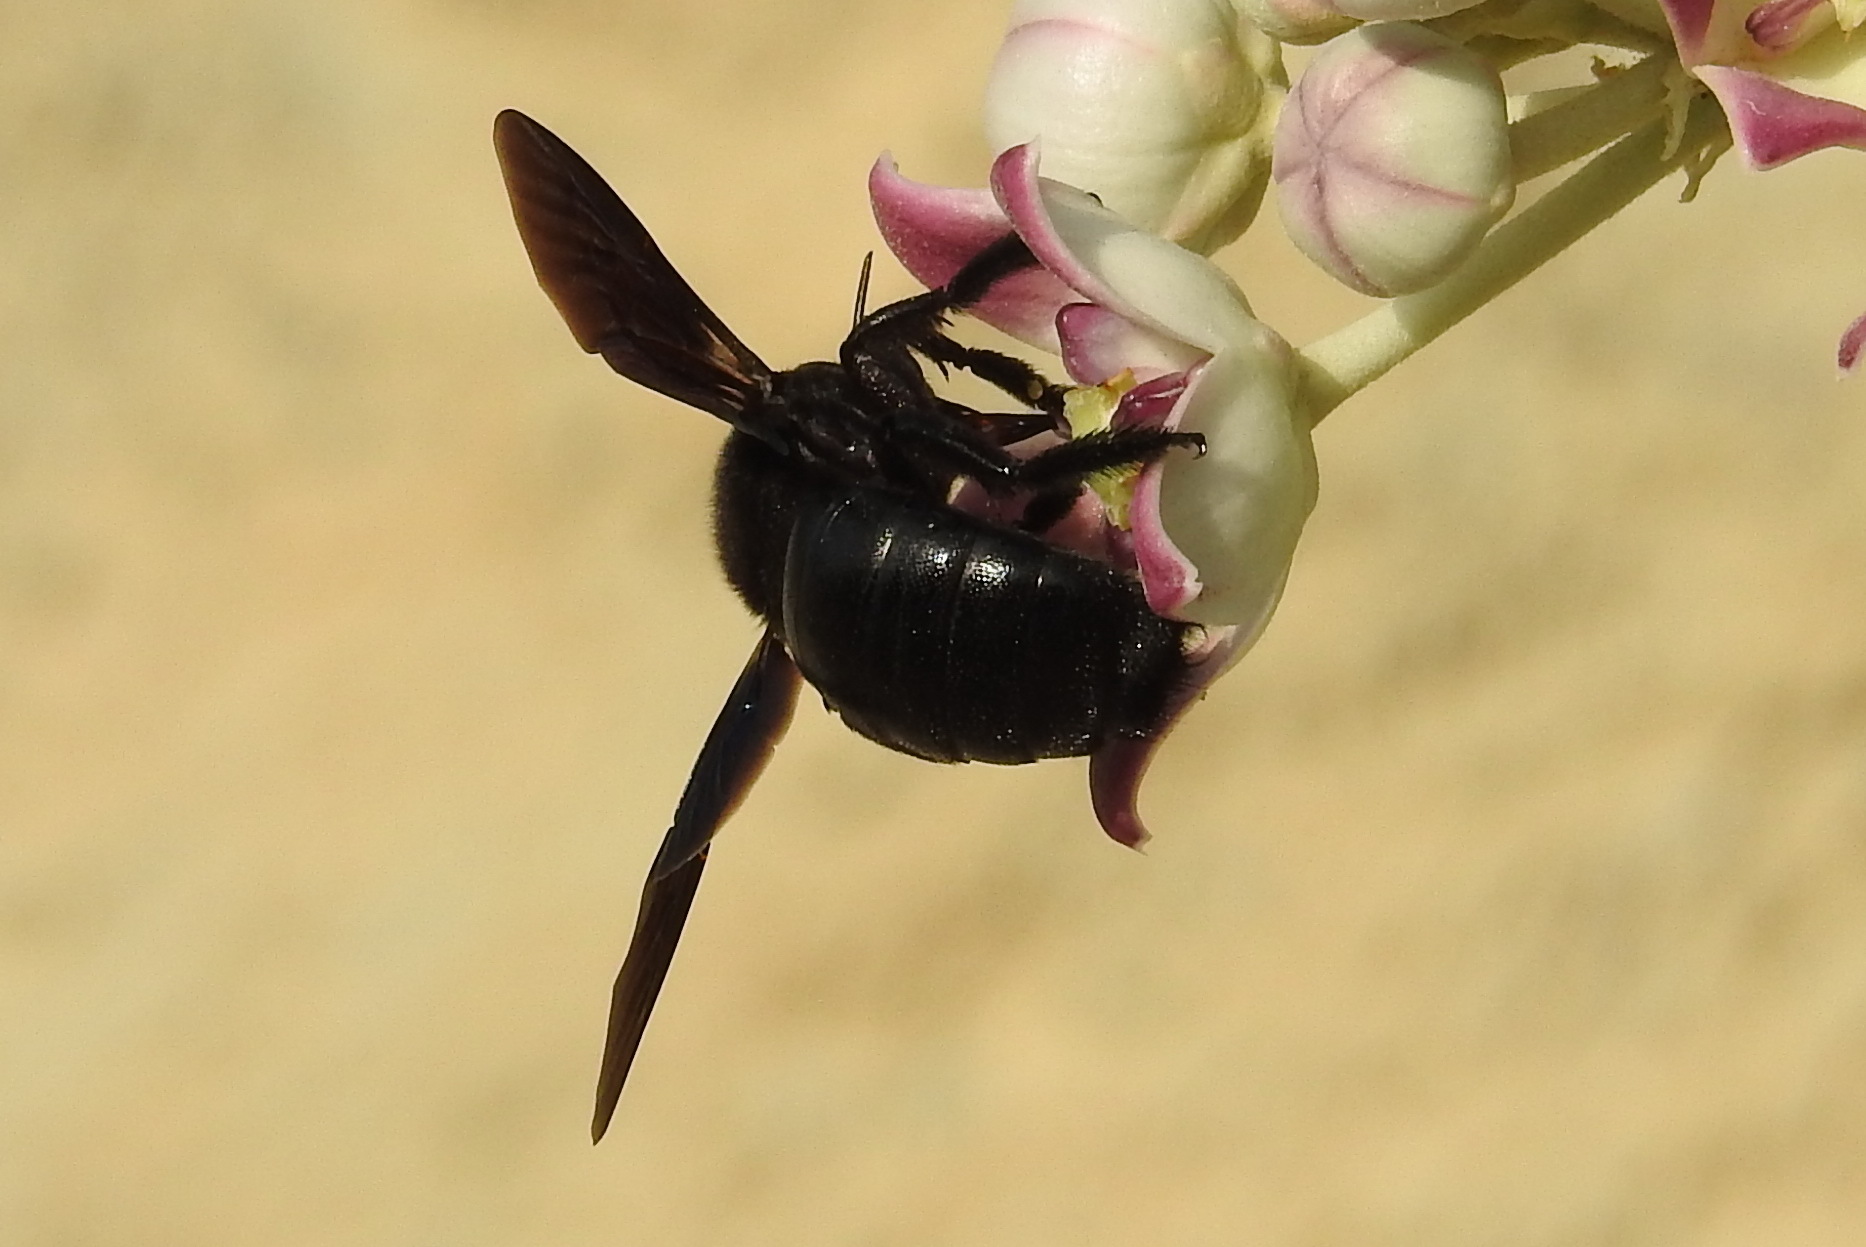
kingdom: Animalia
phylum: Arthropoda
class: Insecta
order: Hymenoptera
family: Apidae
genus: Xylocopa
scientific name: Xylocopa sulcatipes
